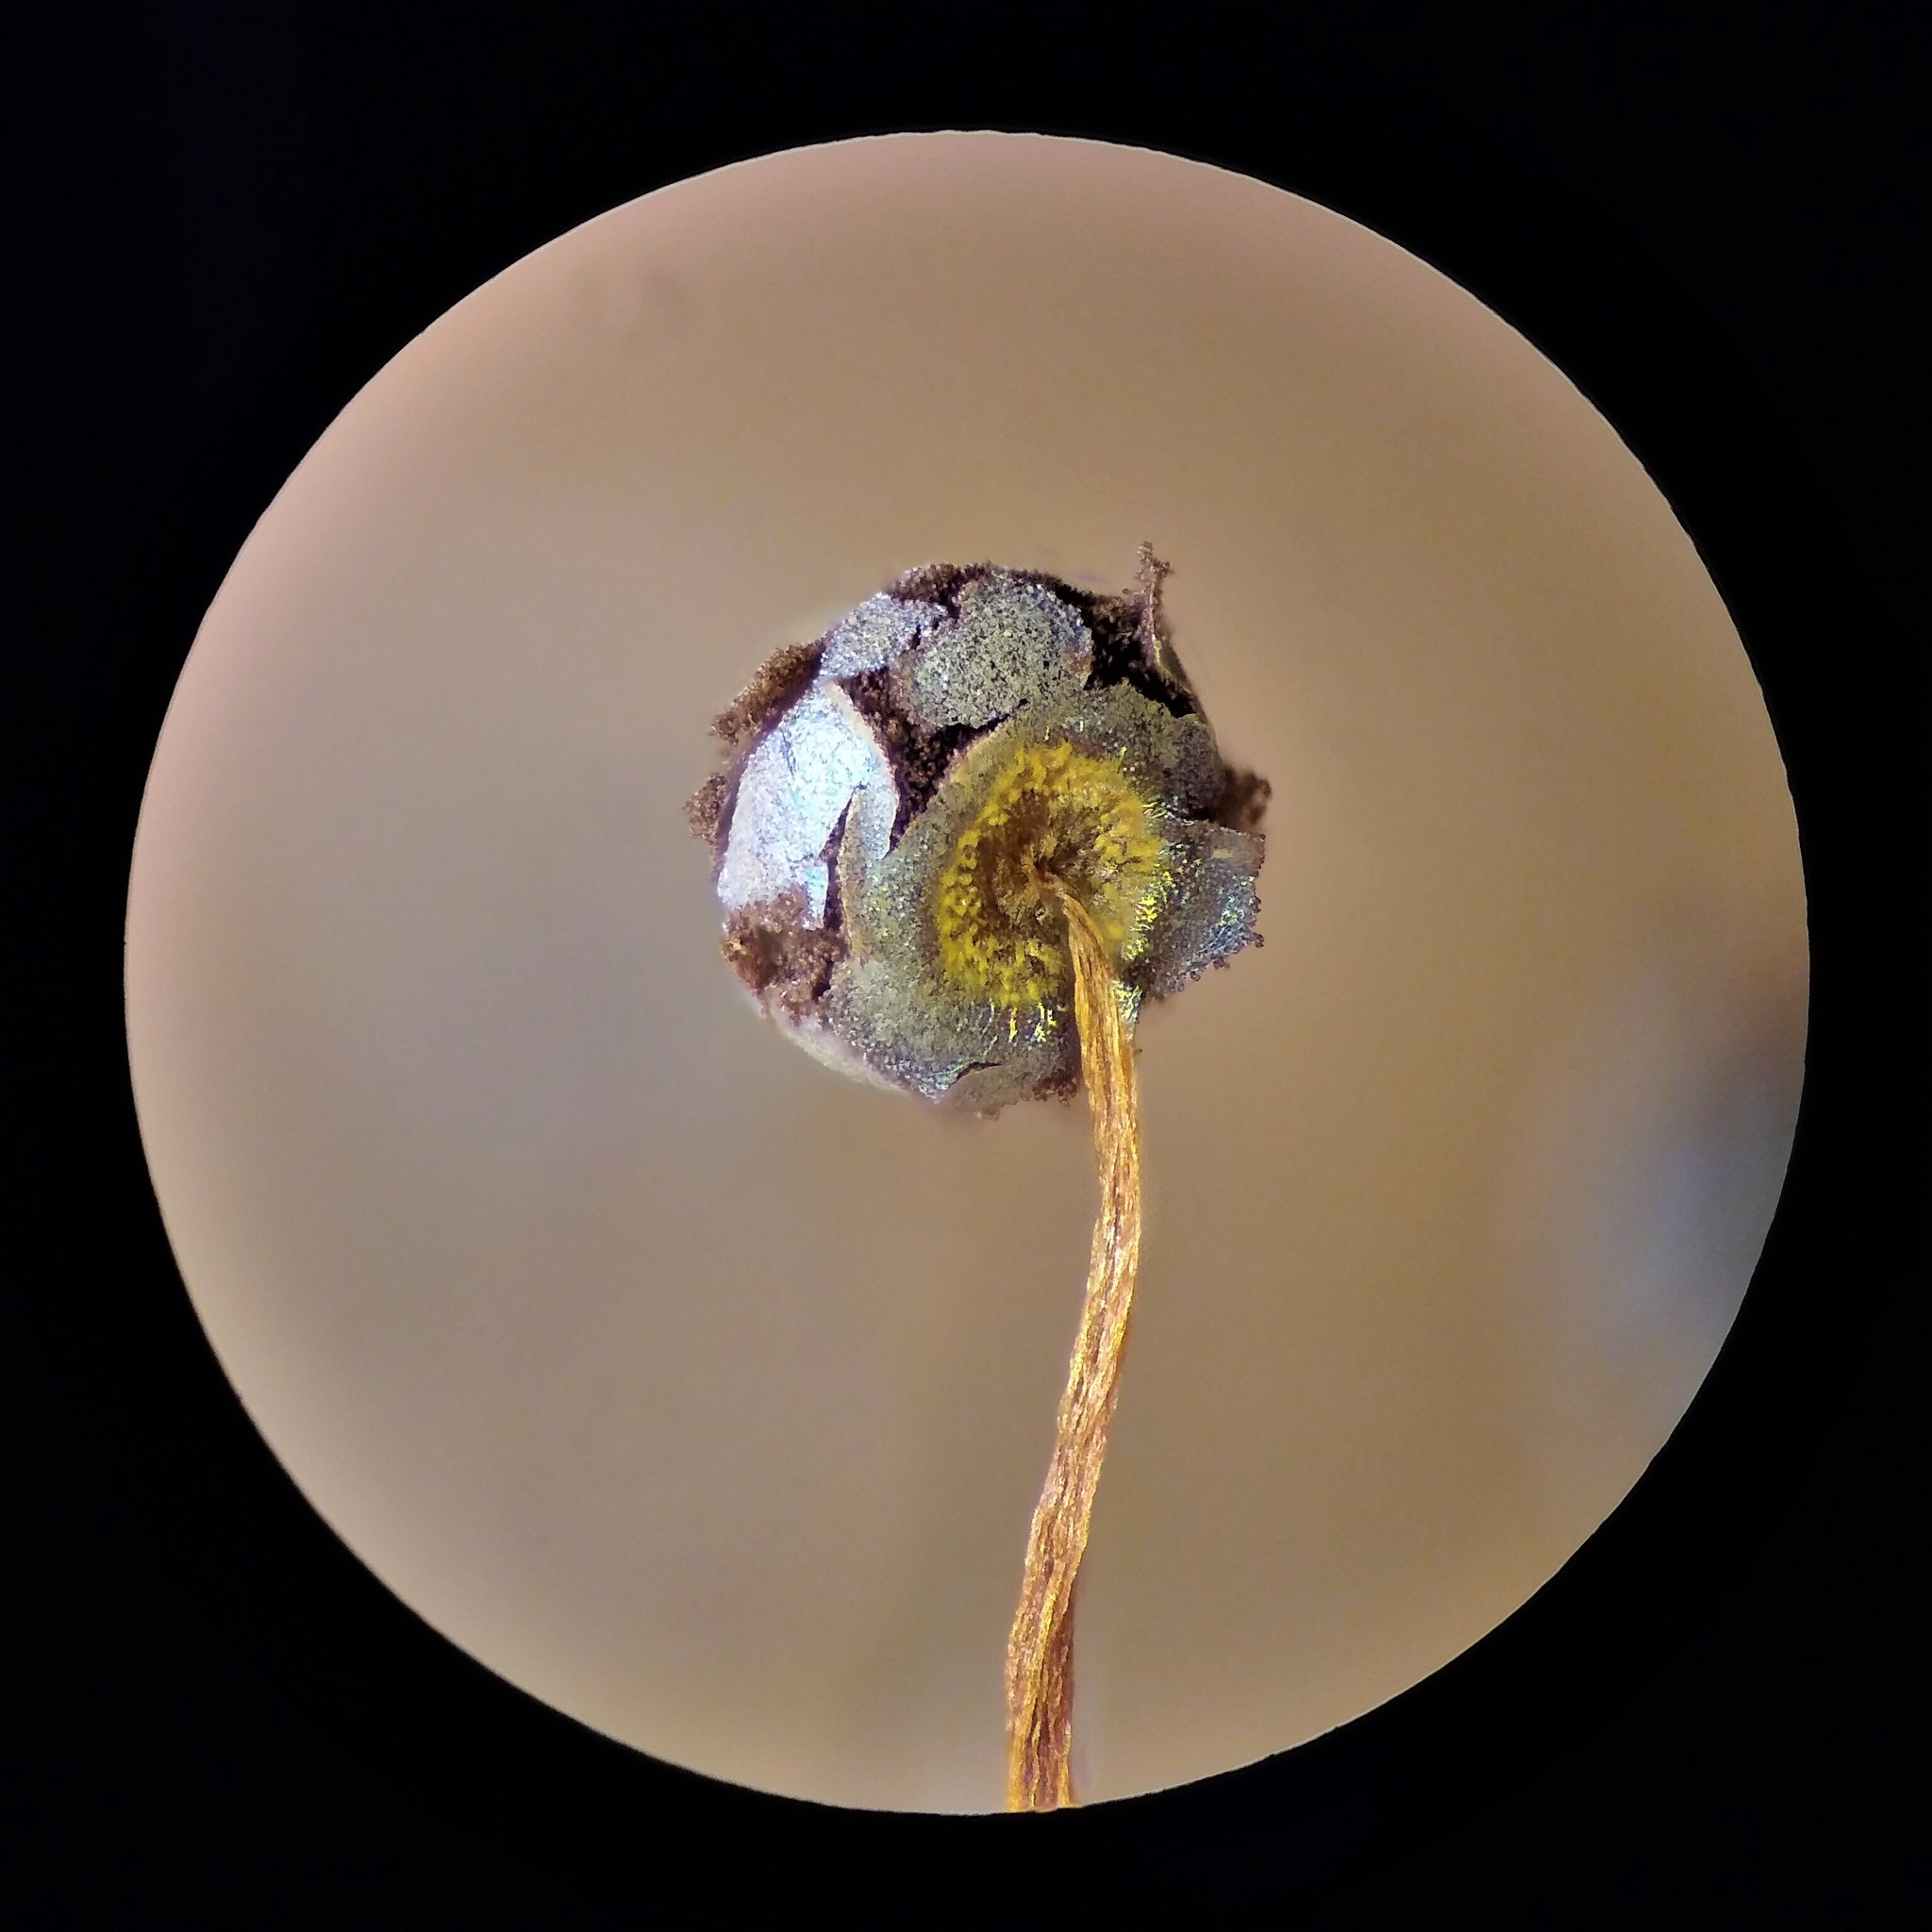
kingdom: Protozoa
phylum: Mycetozoa
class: Myxomycetes
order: Physarales
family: Physaraceae
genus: Physarum
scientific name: Physarum flavicomum
